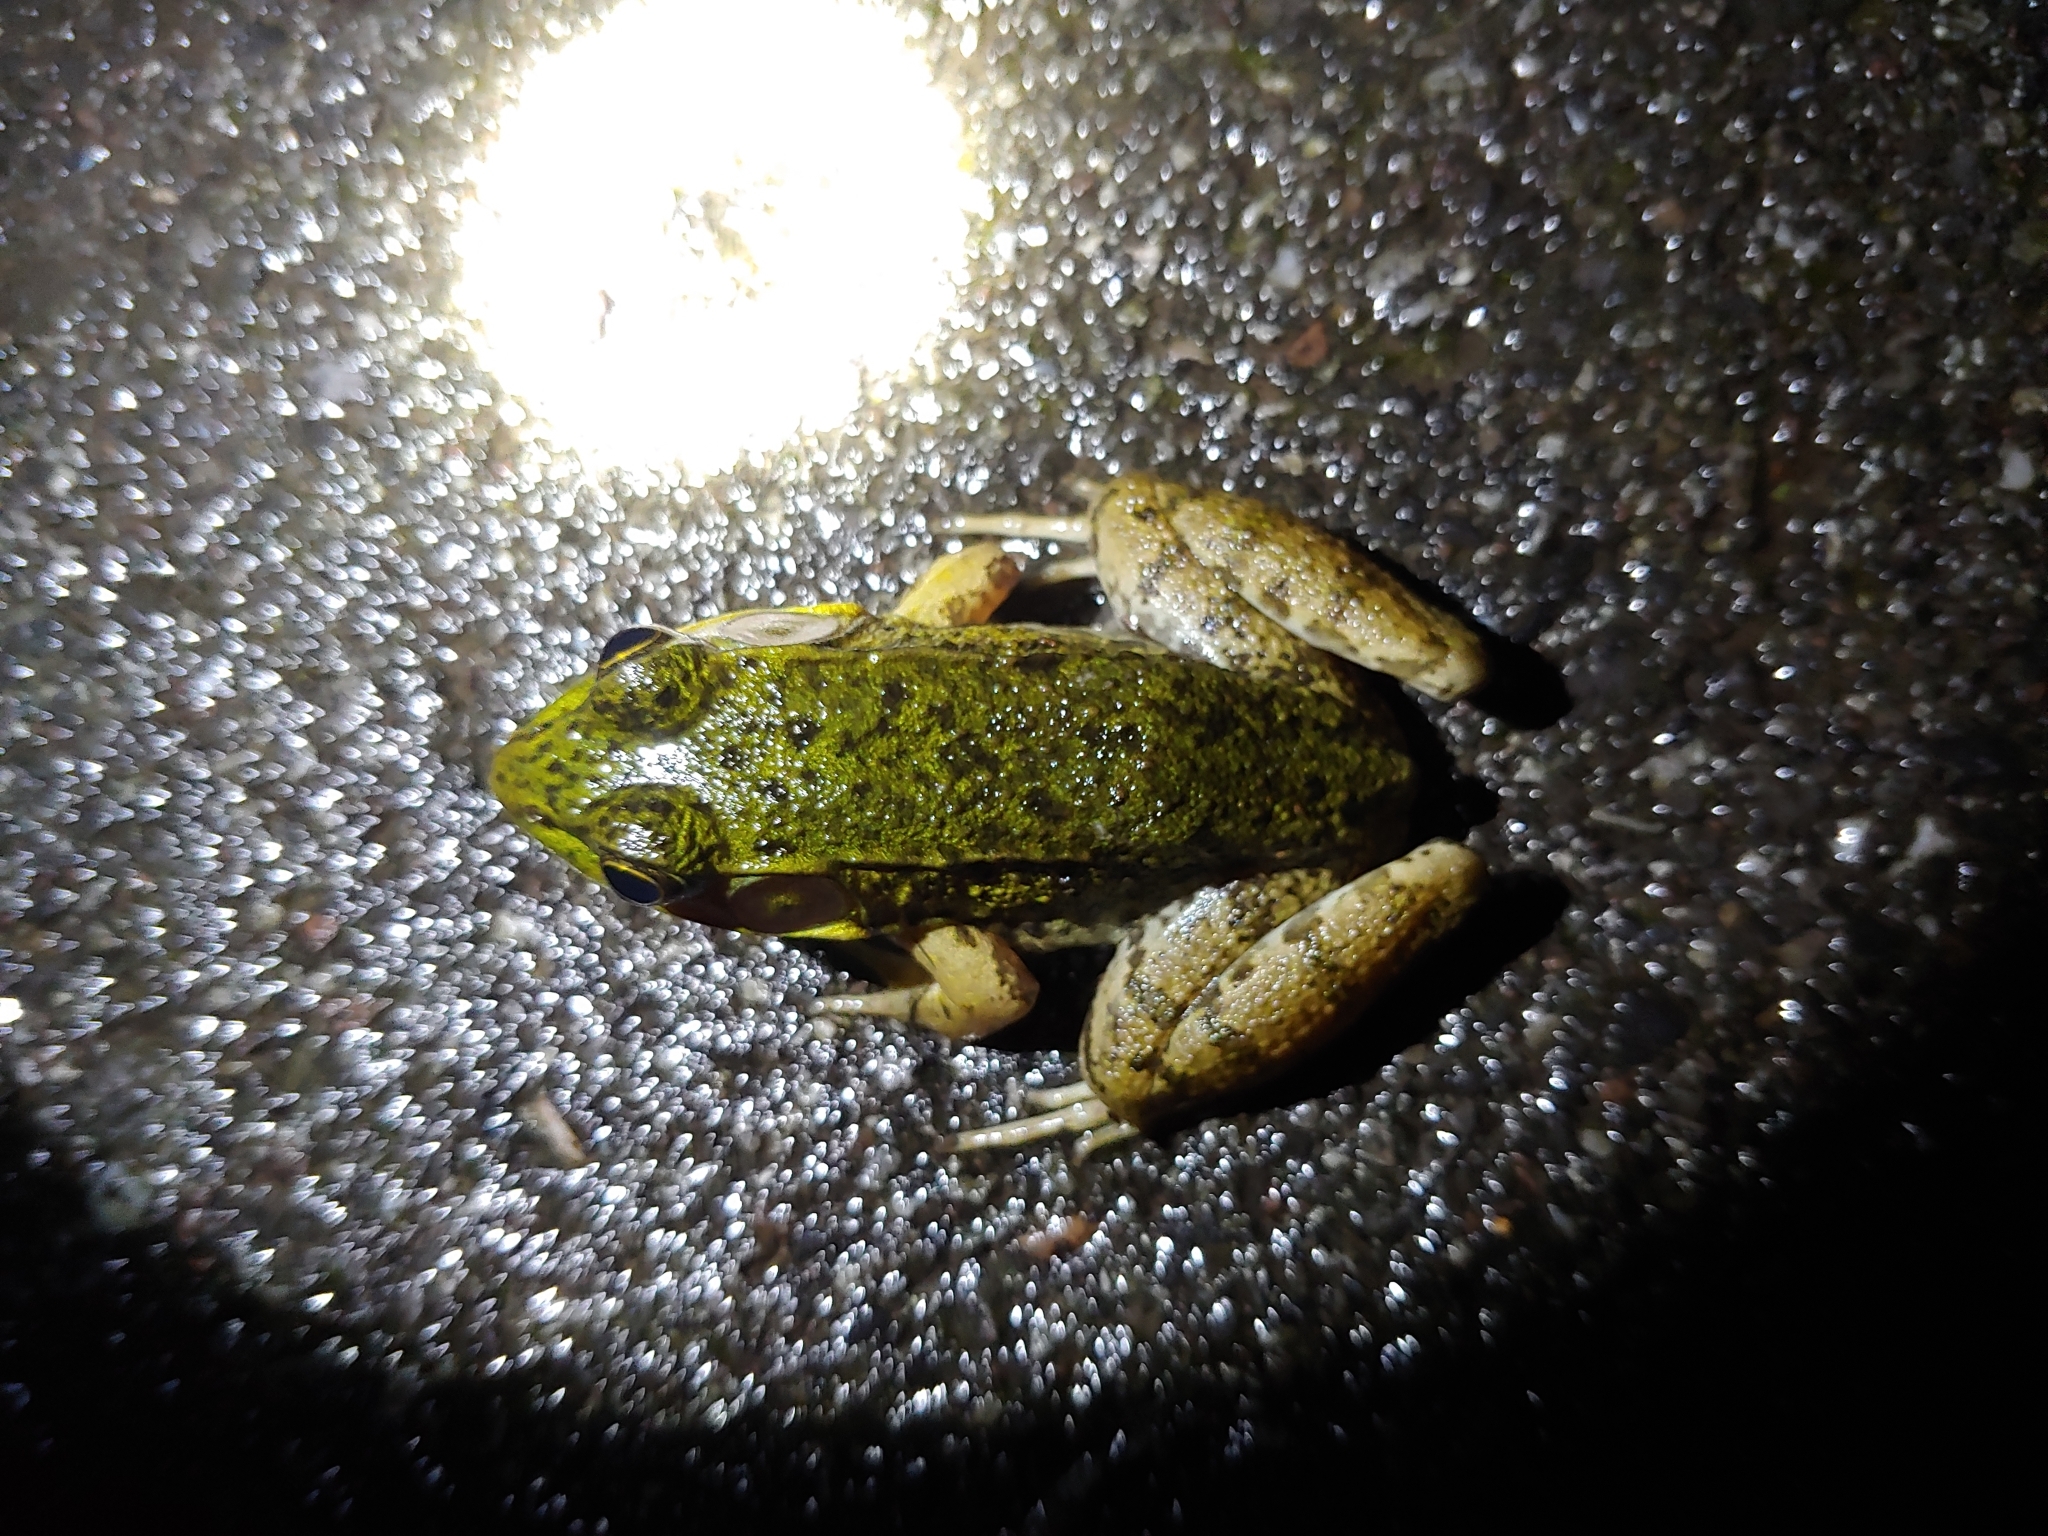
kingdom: Animalia
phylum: Chordata
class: Amphibia
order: Anura
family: Ranidae
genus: Lithobates
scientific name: Lithobates clamitans
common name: Green frog
